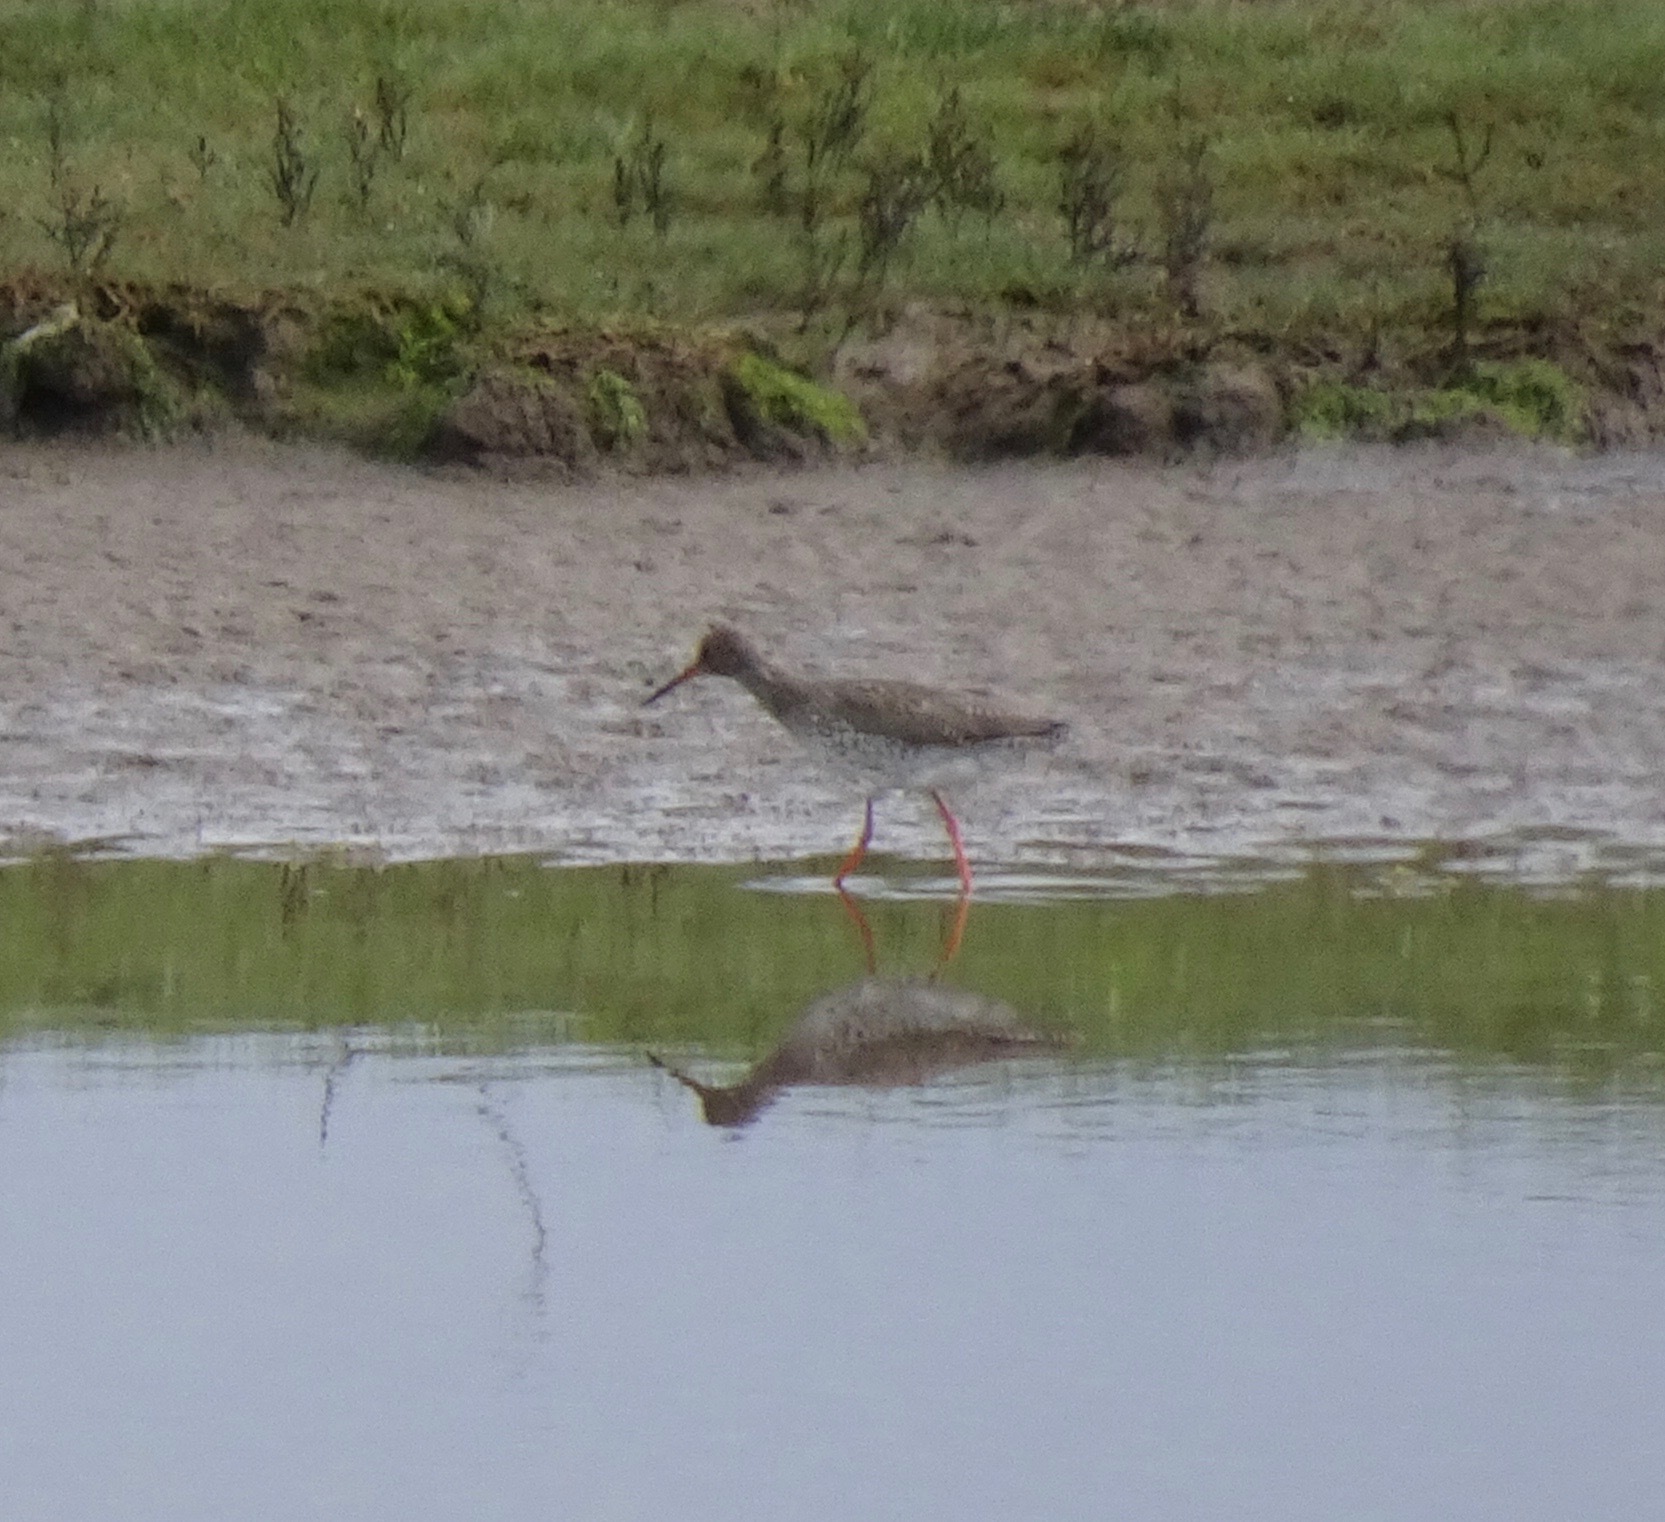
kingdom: Animalia
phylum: Chordata
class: Aves
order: Charadriiformes
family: Scolopacidae
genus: Tringa
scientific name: Tringa totanus
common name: Common redshank
